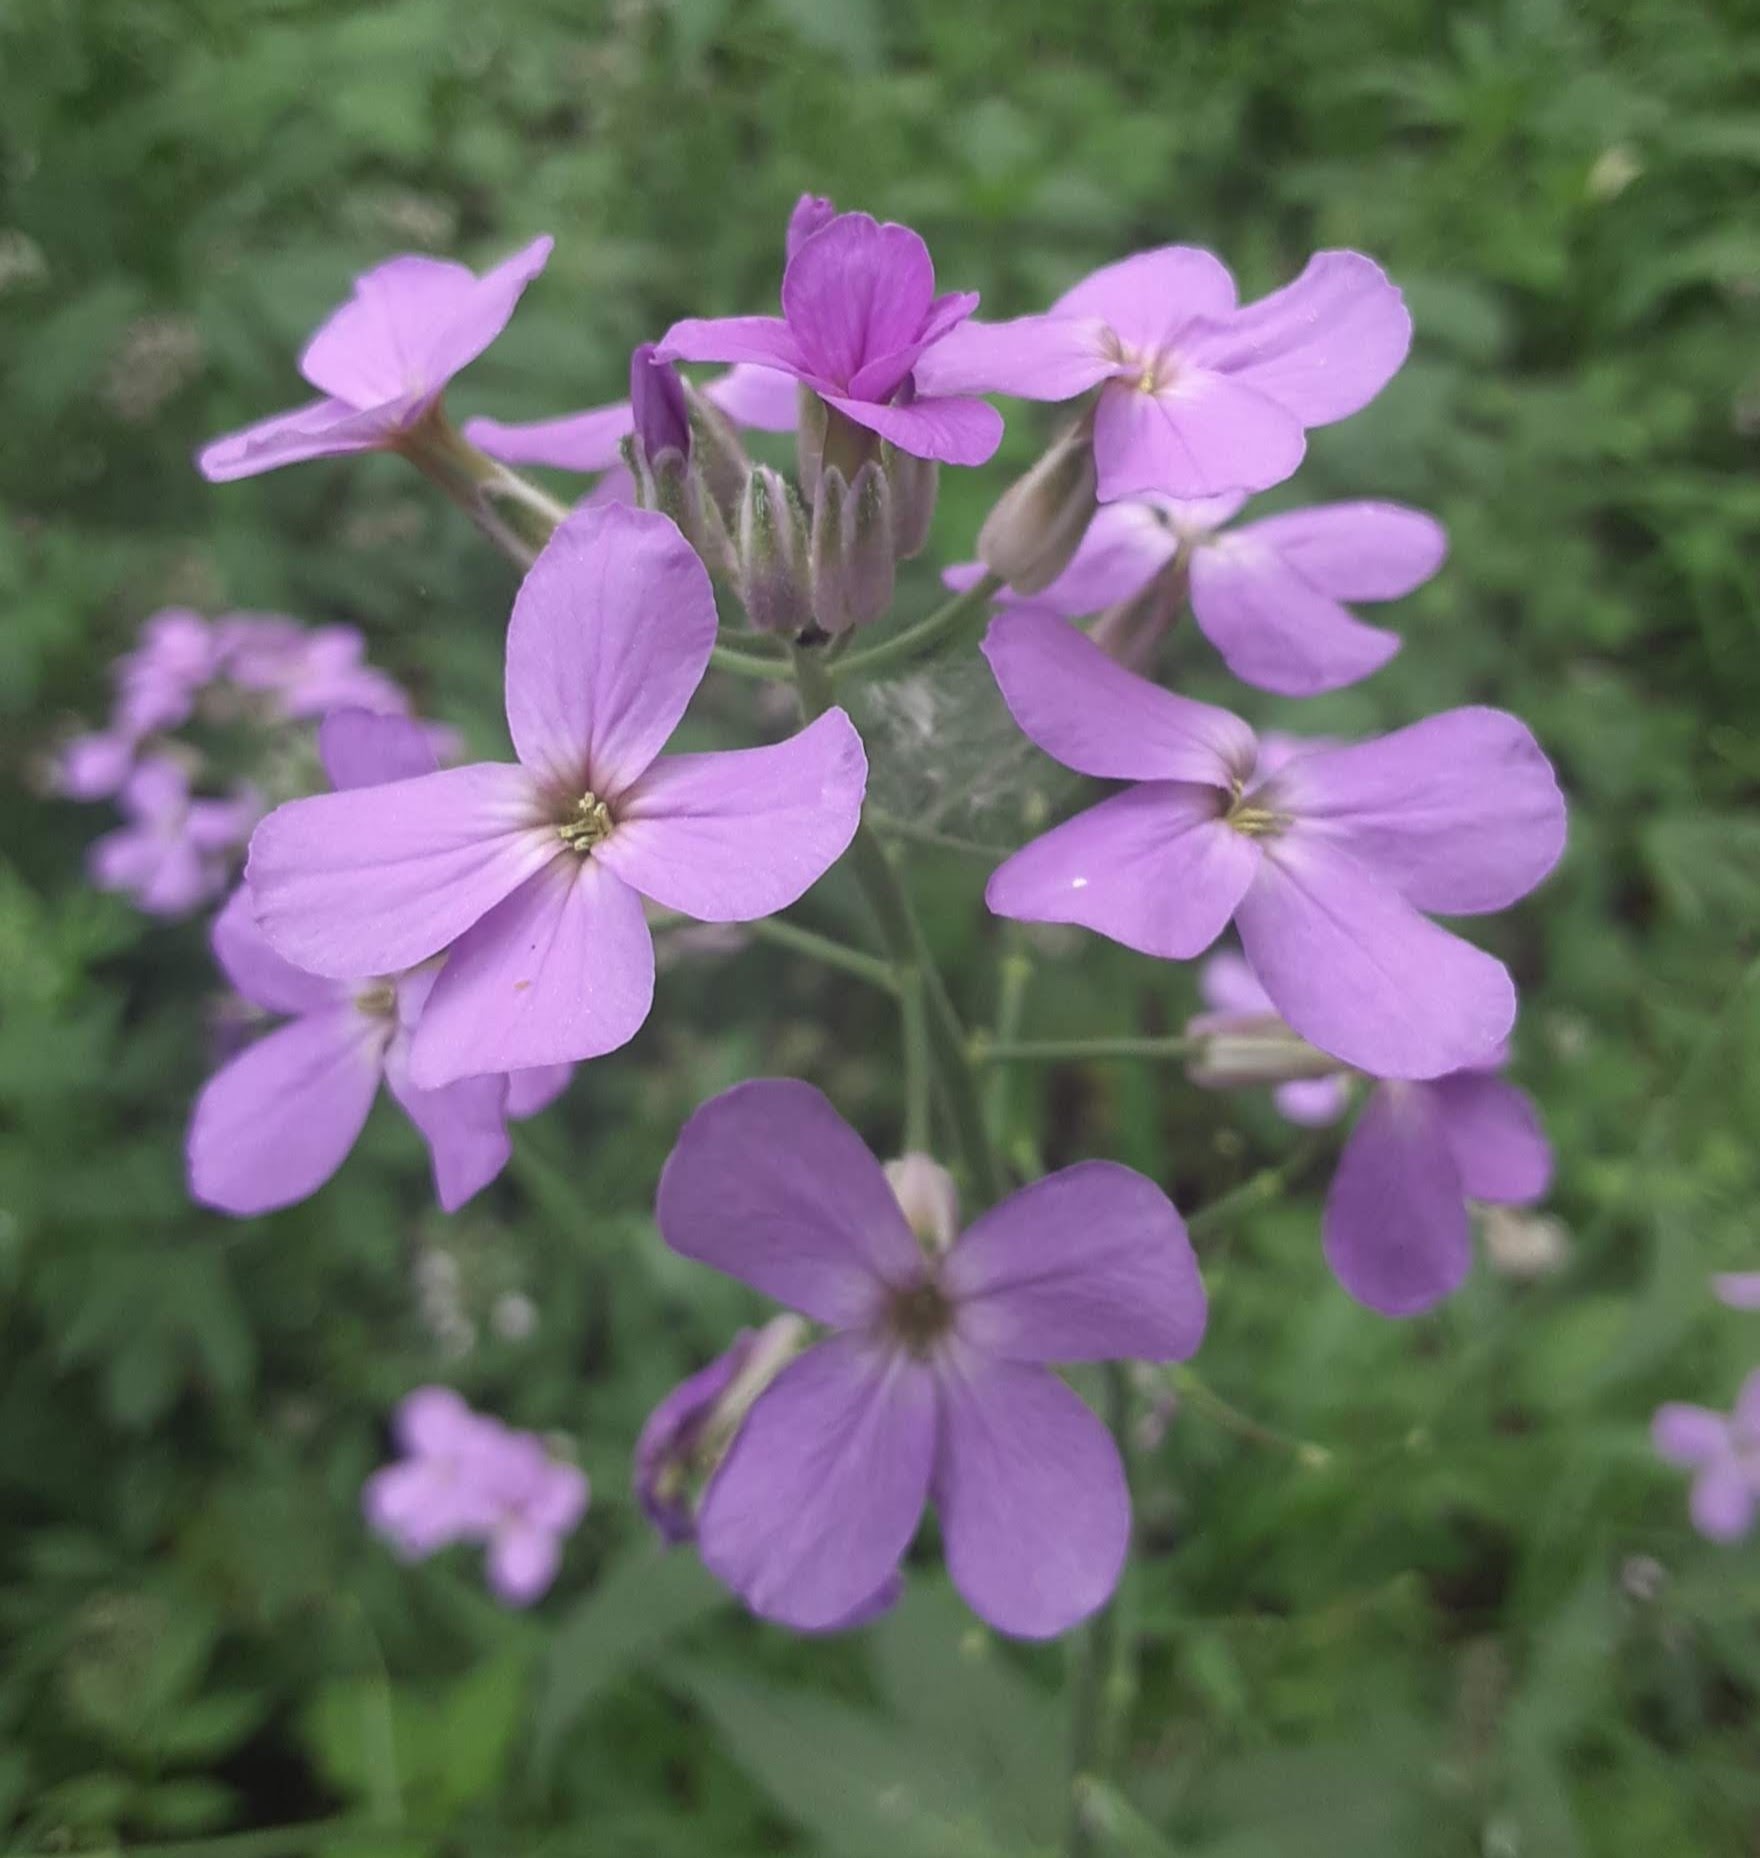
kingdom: Plantae
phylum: Tracheophyta
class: Magnoliopsida
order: Brassicales
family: Brassicaceae
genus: Hesperis
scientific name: Hesperis matronalis
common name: Dame's-violet
